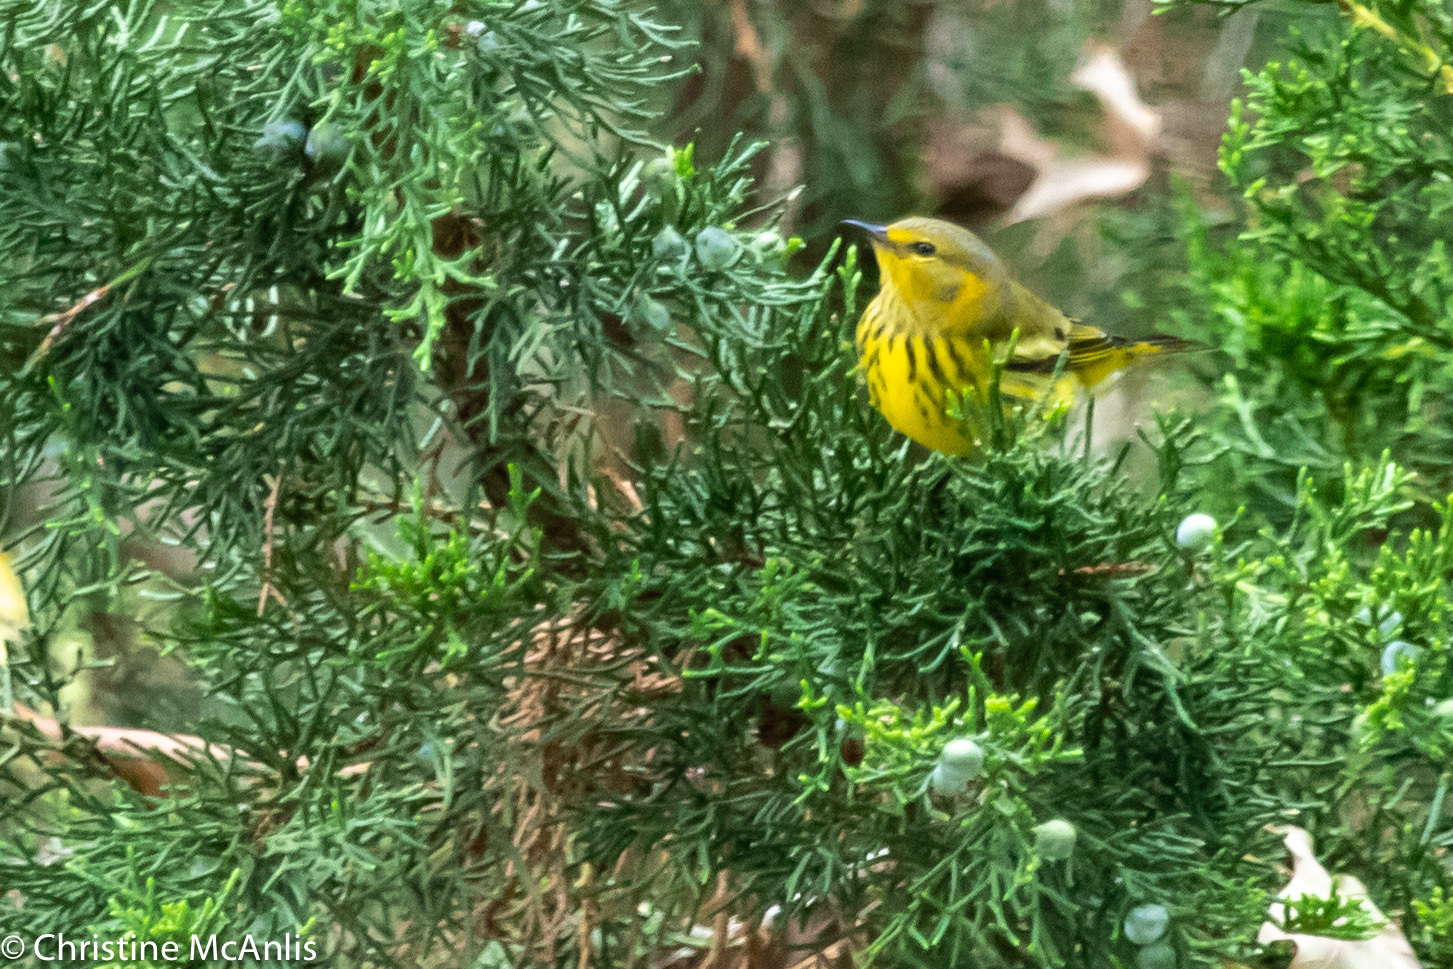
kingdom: Animalia
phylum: Chordata
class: Aves
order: Passeriformes
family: Parulidae
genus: Setophaga
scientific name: Setophaga tigrina
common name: Cape may warbler
